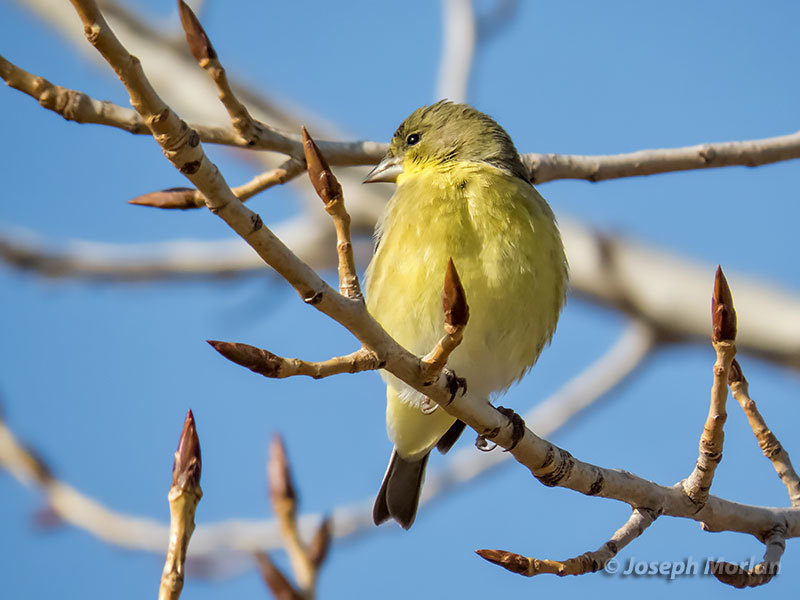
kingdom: Animalia
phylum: Chordata
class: Aves
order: Passeriformes
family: Fringillidae
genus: Spinus
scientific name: Spinus psaltria
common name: Lesser goldfinch
